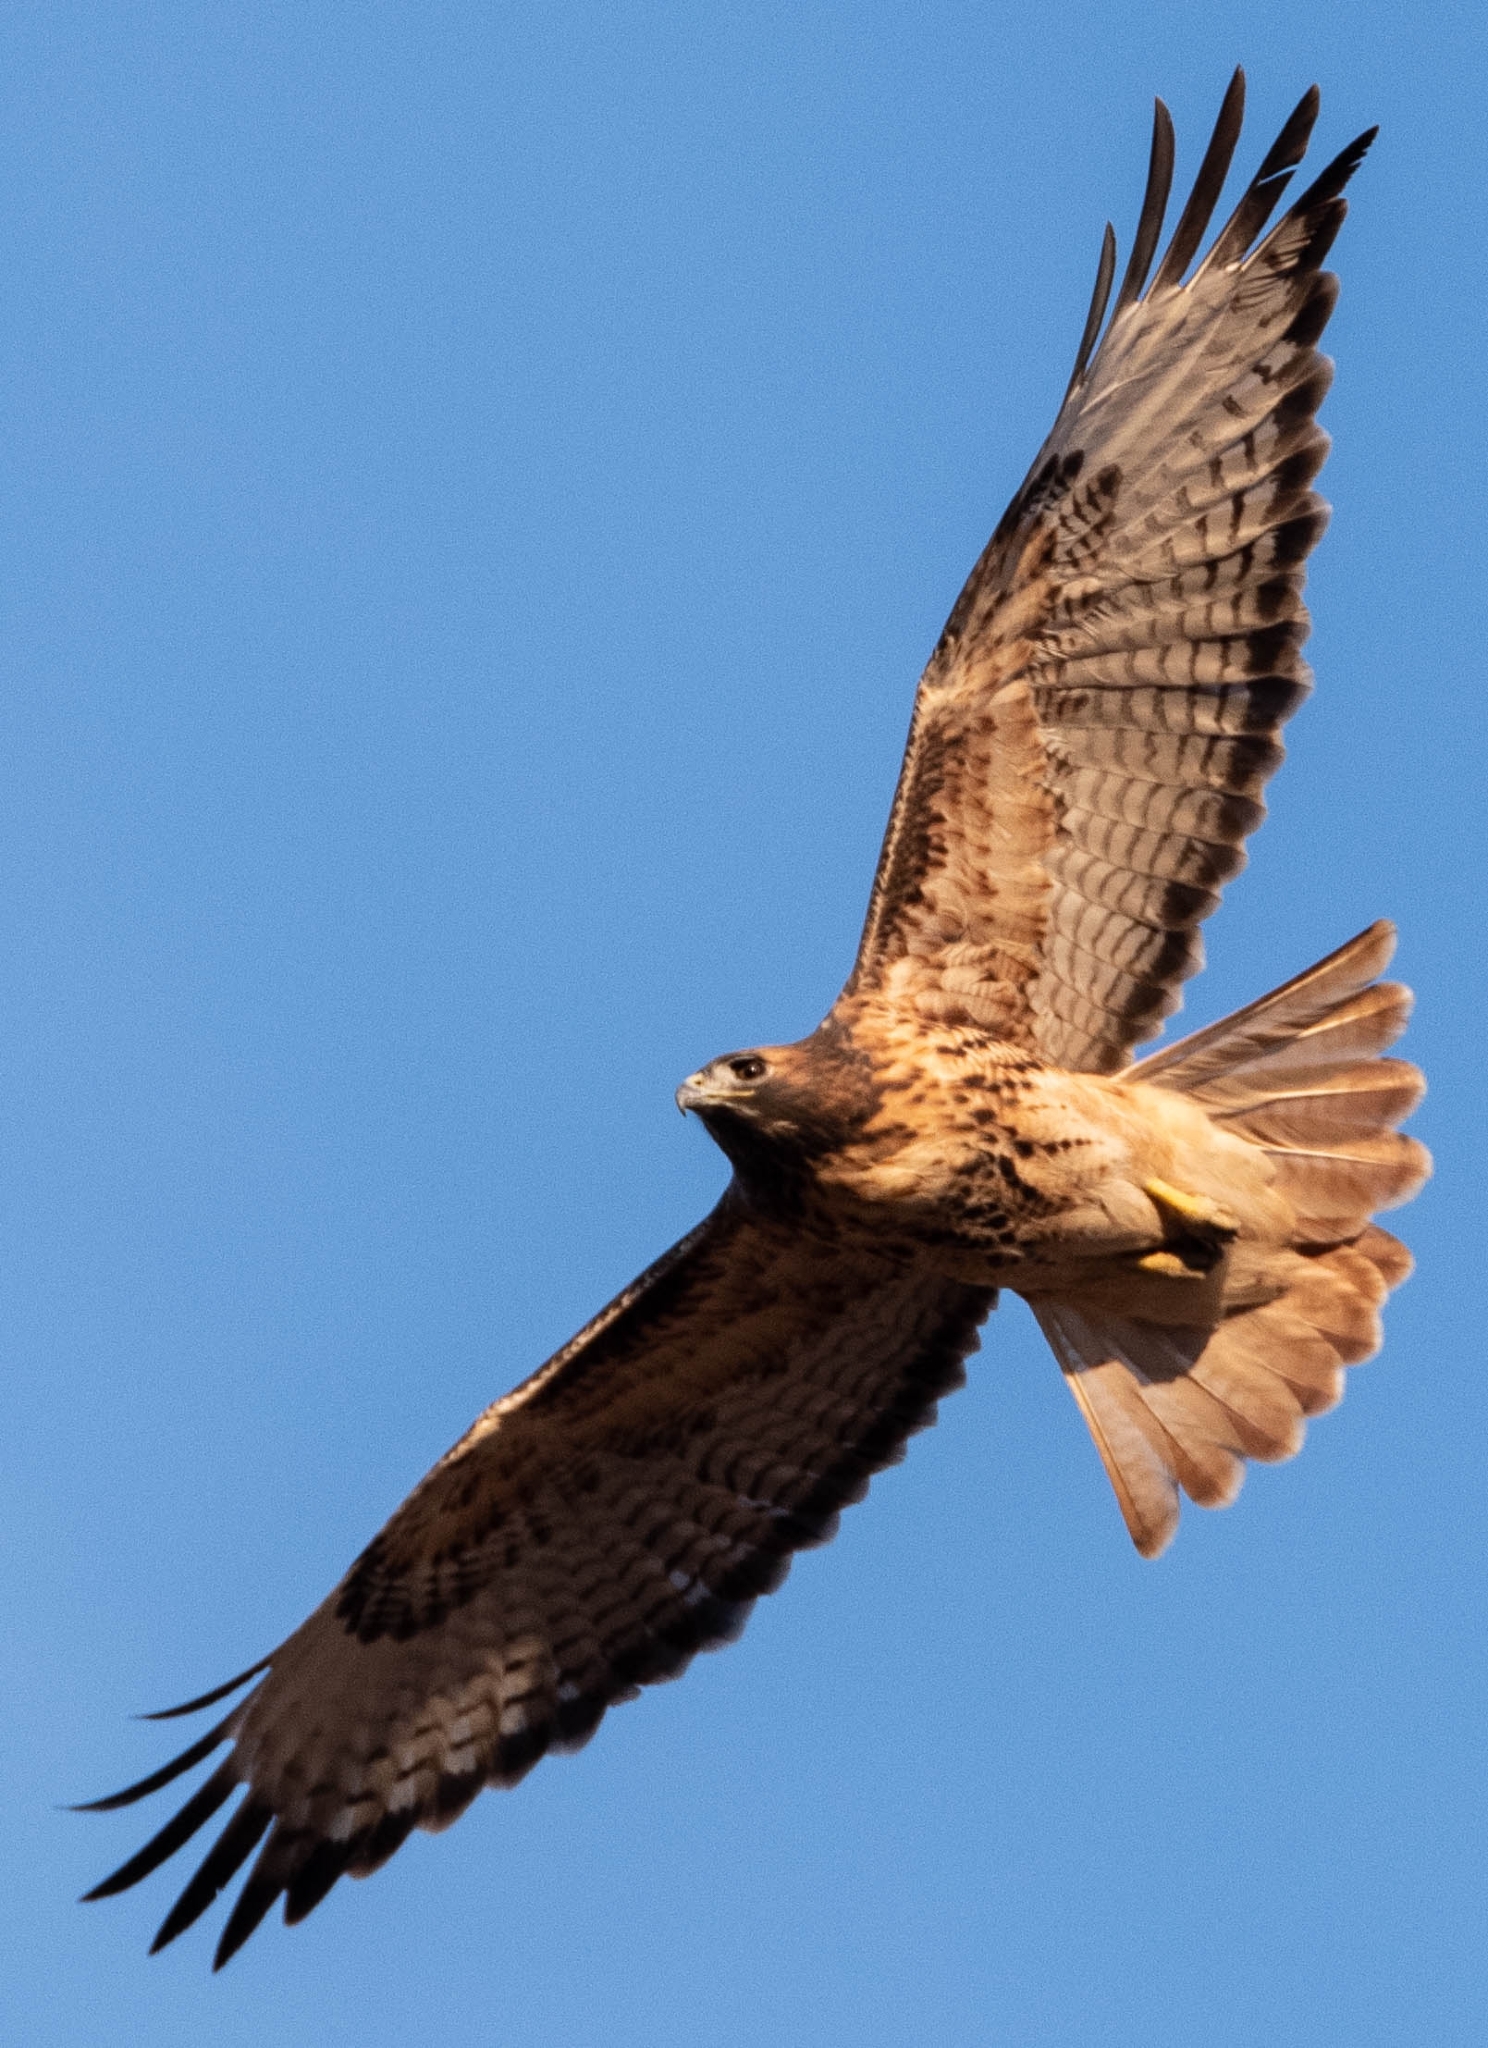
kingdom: Animalia
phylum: Chordata
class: Aves
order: Accipitriformes
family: Accipitridae
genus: Buteo
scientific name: Buteo jamaicensis
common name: Red-tailed hawk
